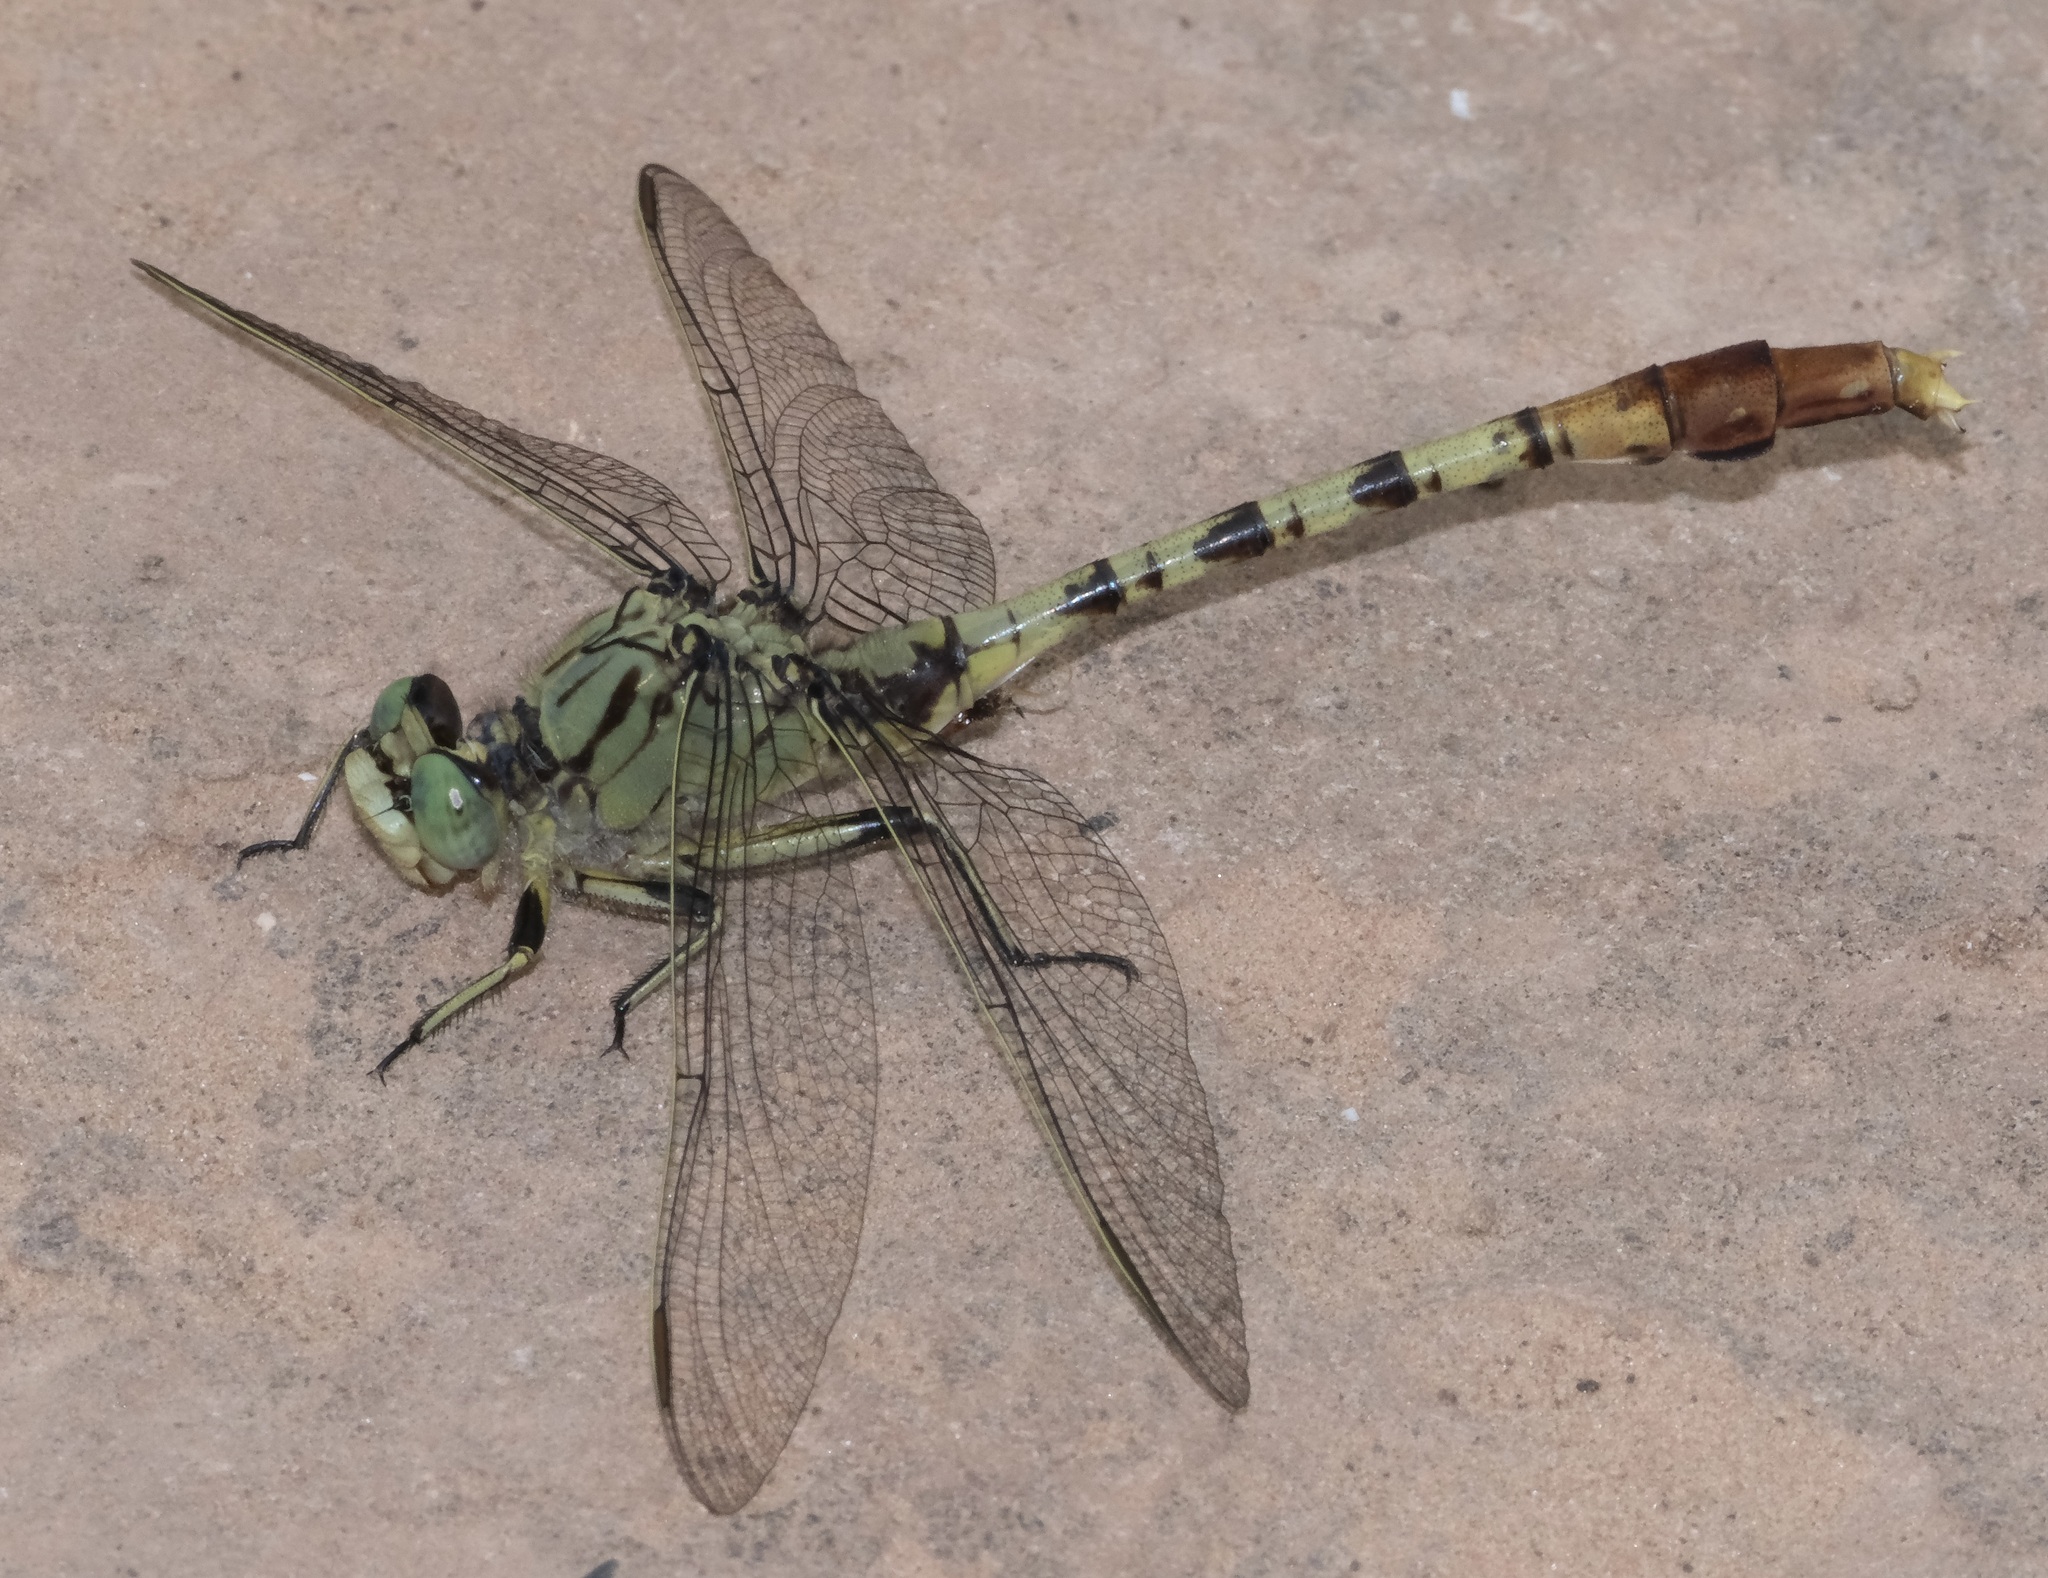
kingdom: Animalia
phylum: Arthropoda
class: Insecta
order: Odonata
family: Gomphidae
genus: Arigomphus
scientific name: Arigomphus submedianus
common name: Jade clubtail
